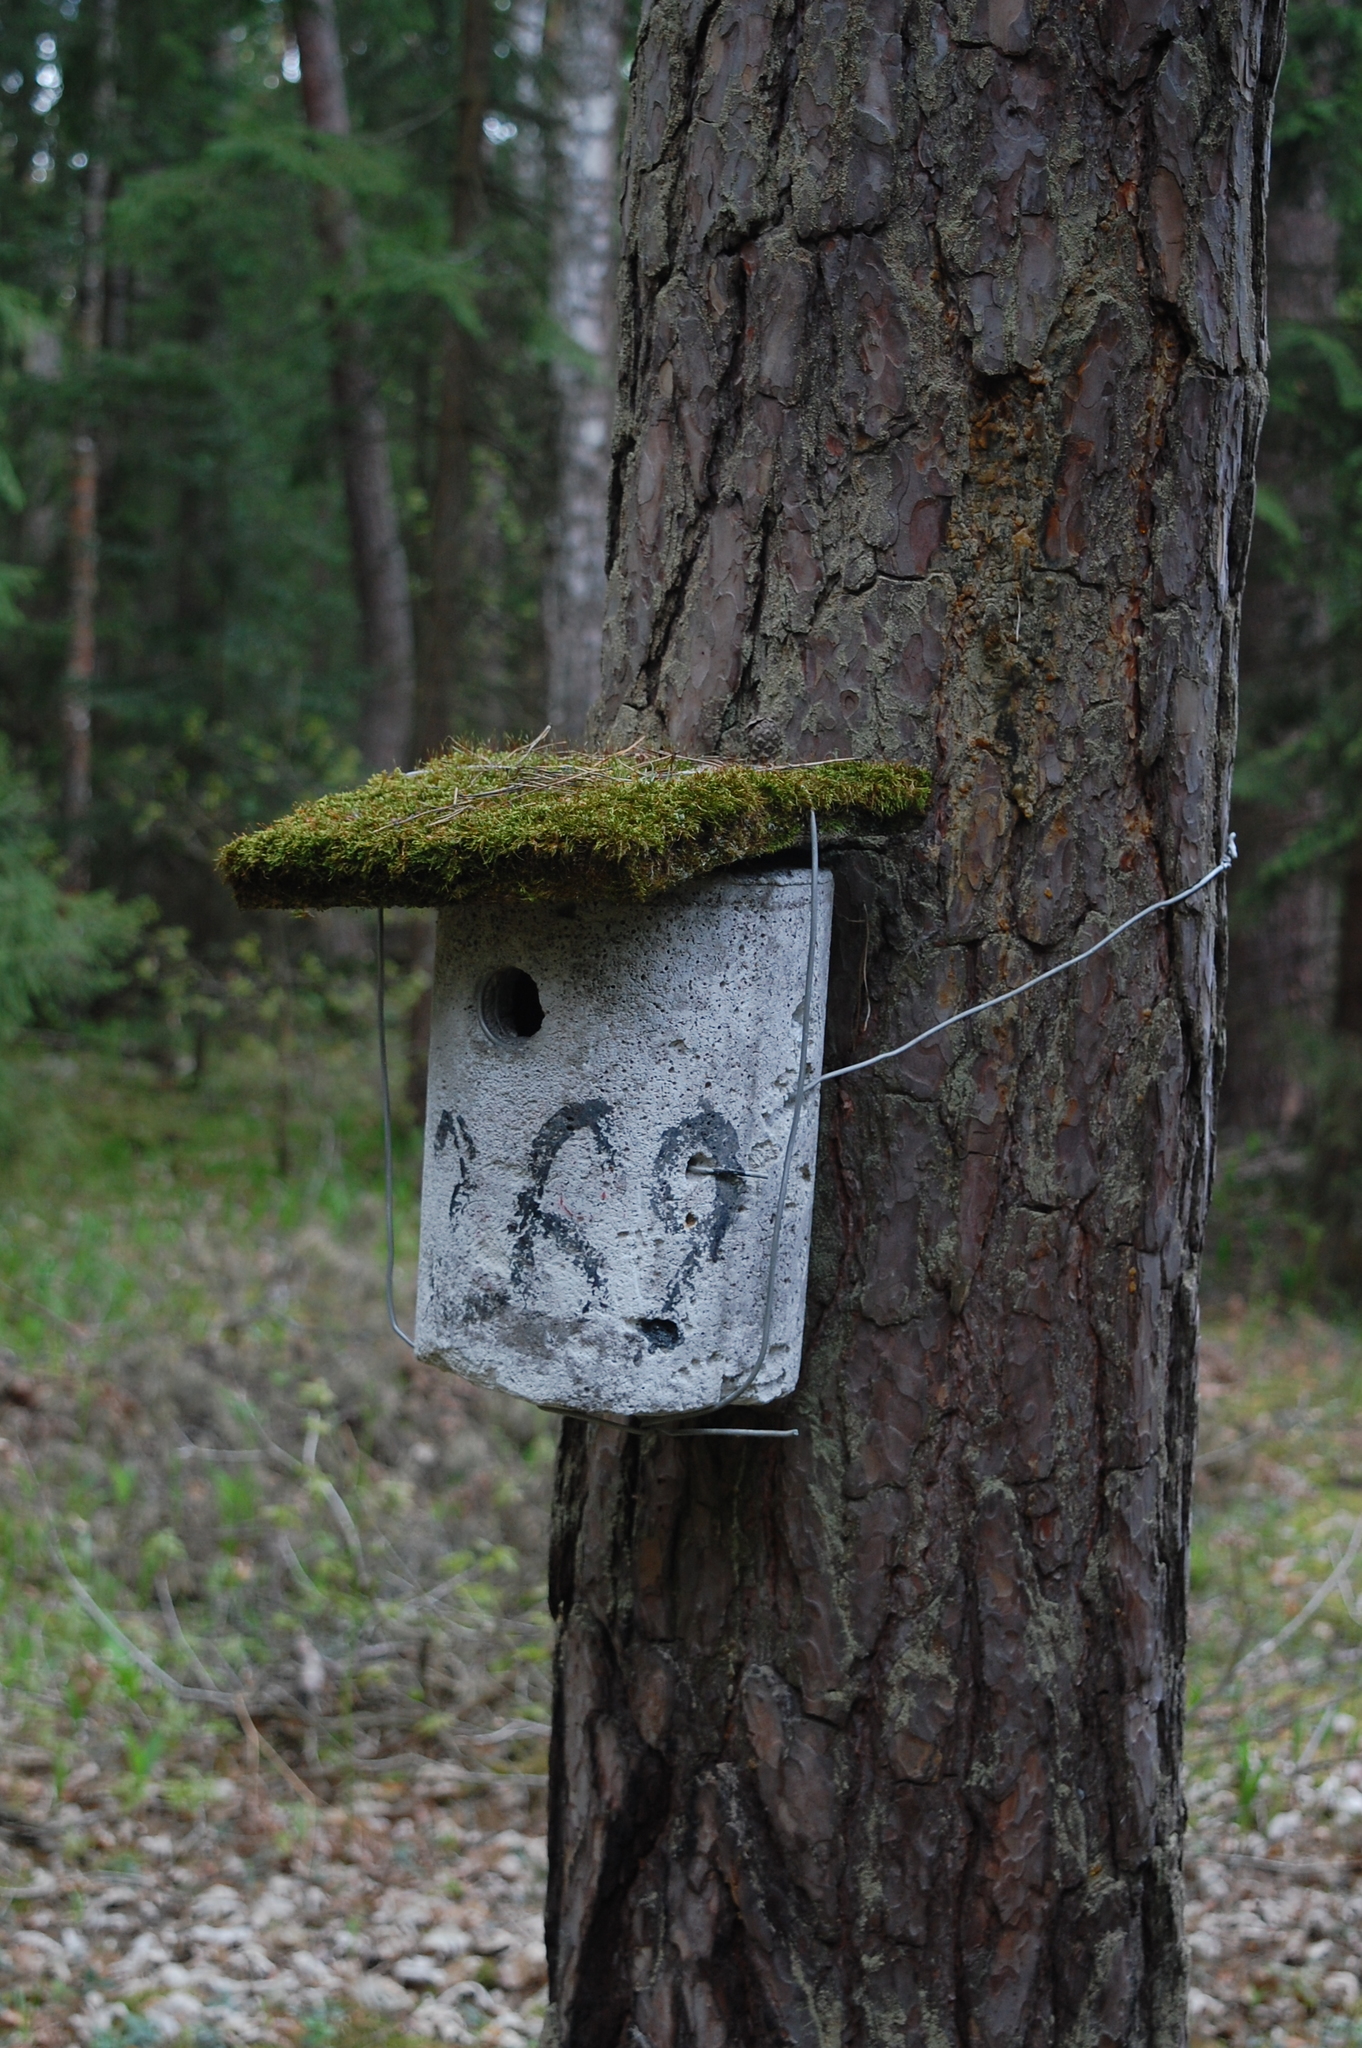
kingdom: Plantae
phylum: Tracheophyta
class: Pinopsida
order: Pinales
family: Pinaceae
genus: Pinus
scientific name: Pinus sylvestris
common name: Scots pine
